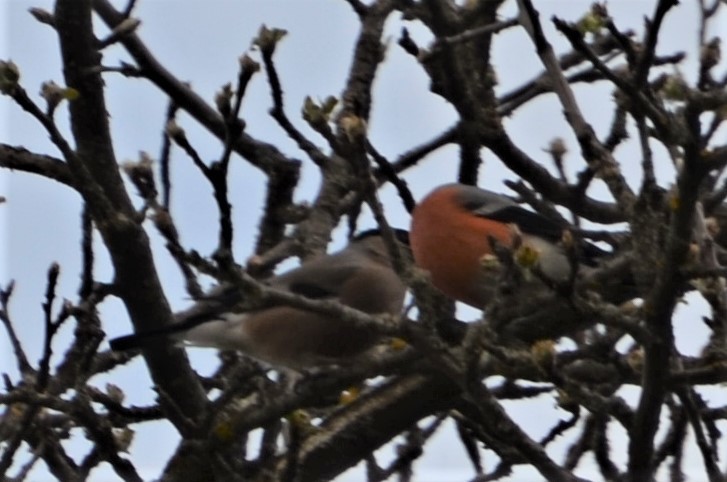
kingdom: Animalia
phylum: Chordata
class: Aves
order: Passeriformes
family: Fringillidae
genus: Pyrrhula
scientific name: Pyrrhula pyrrhula
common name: Eurasian bullfinch
